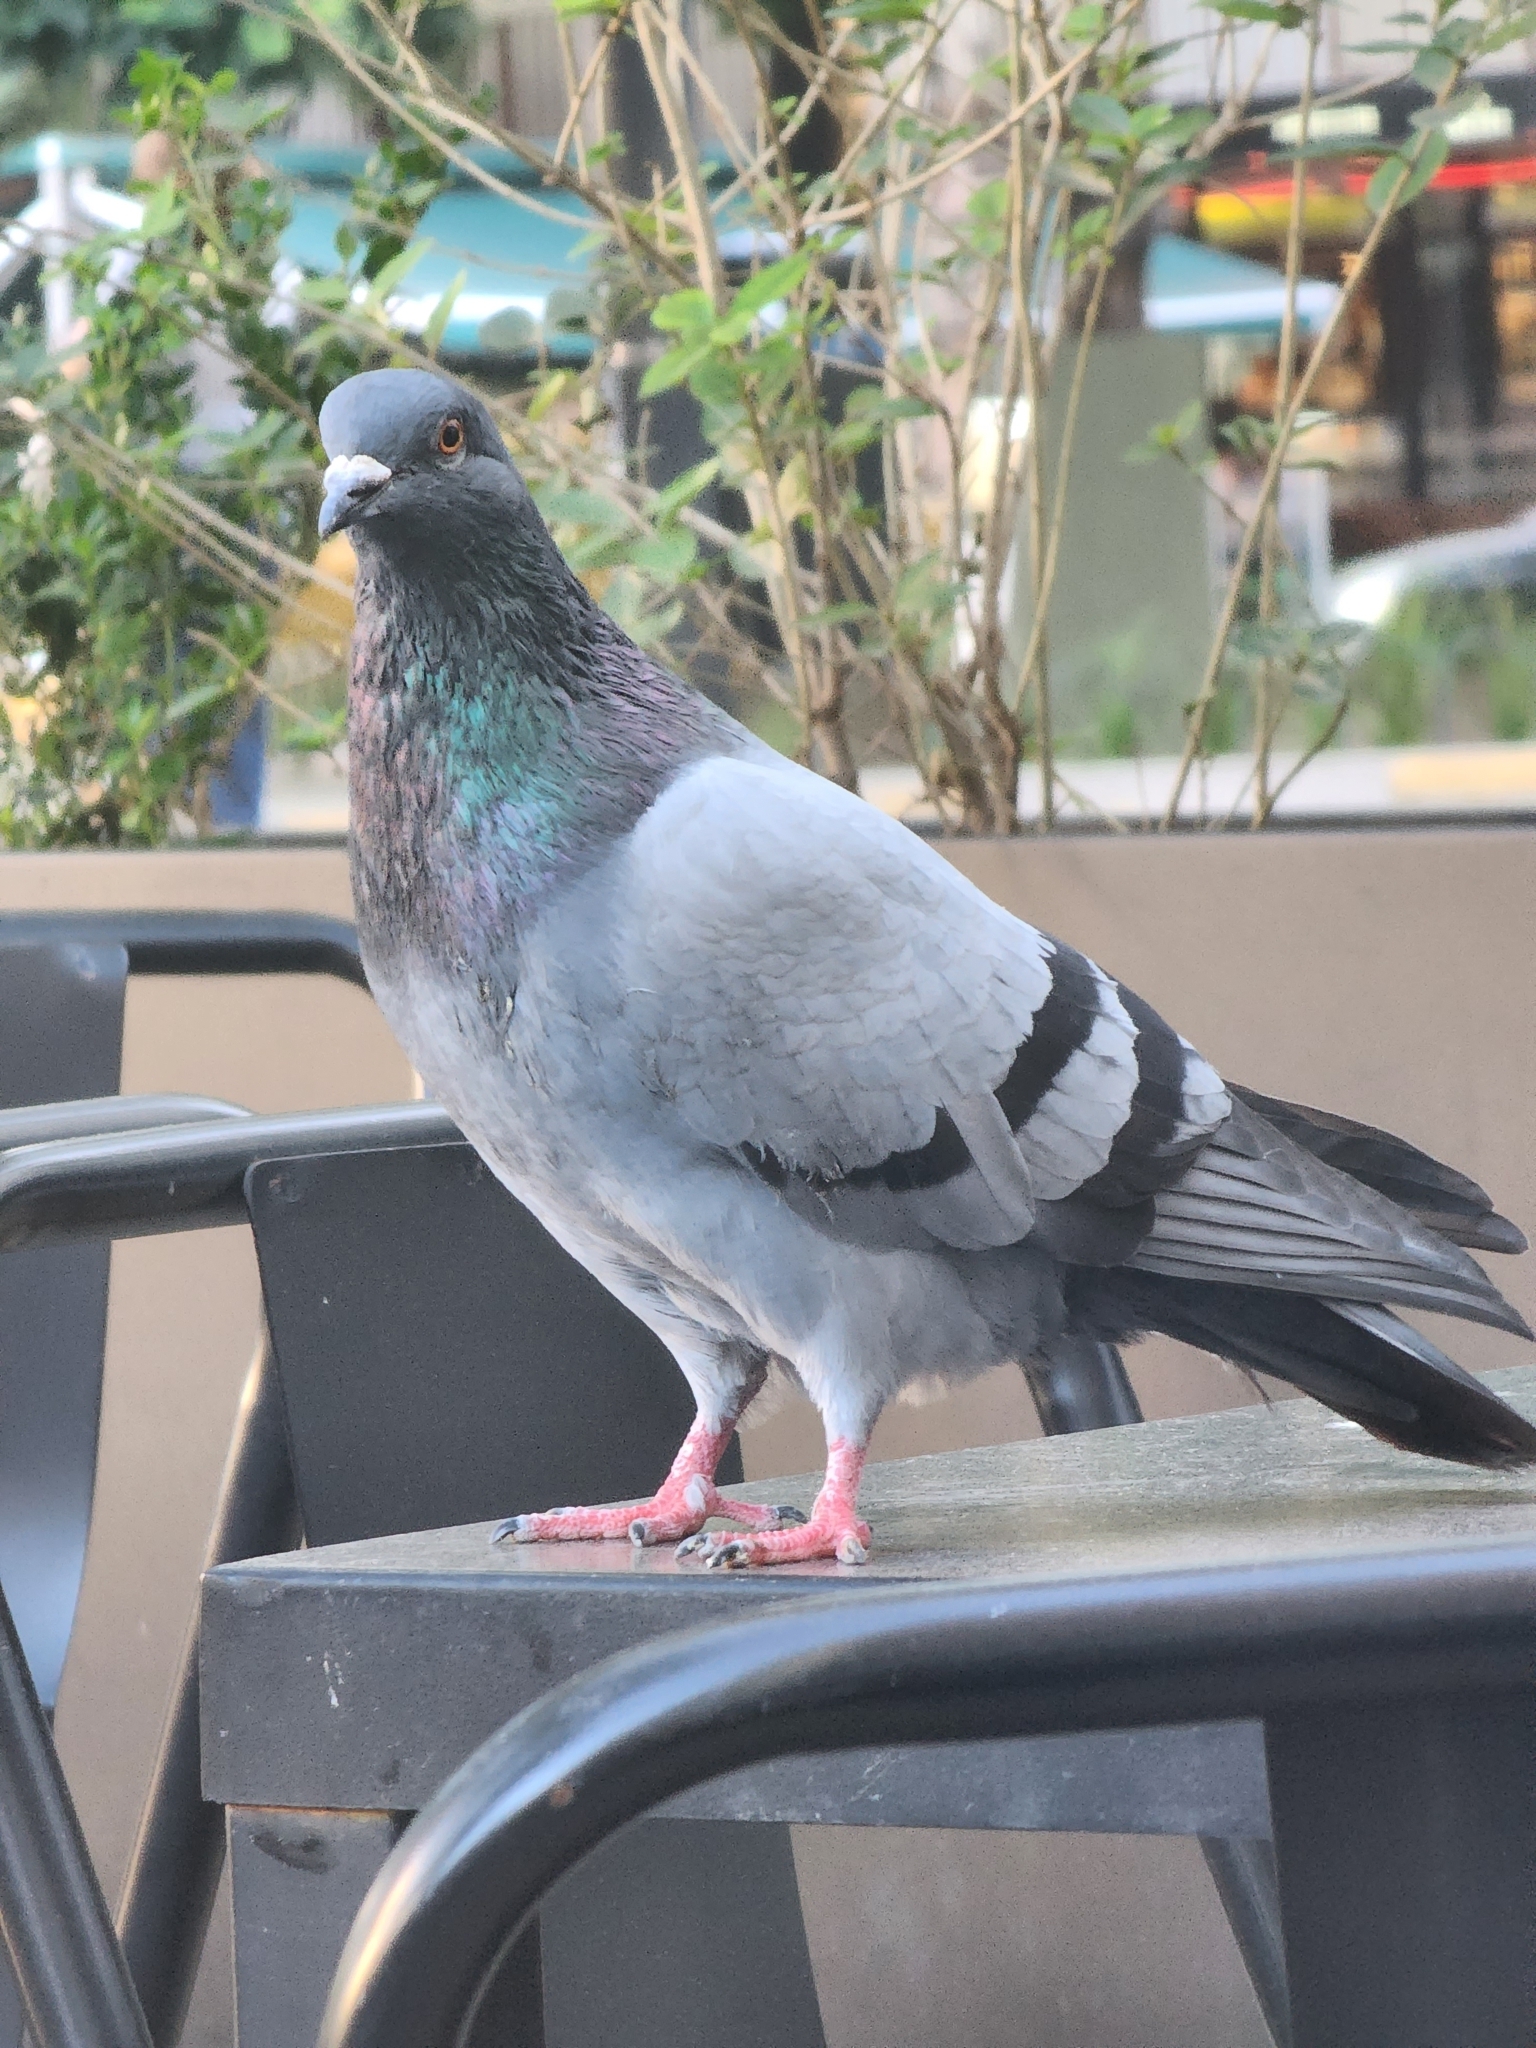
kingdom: Animalia
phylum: Chordata
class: Aves
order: Columbiformes
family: Columbidae
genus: Columba
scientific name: Columba livia
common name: Rock pigeon
